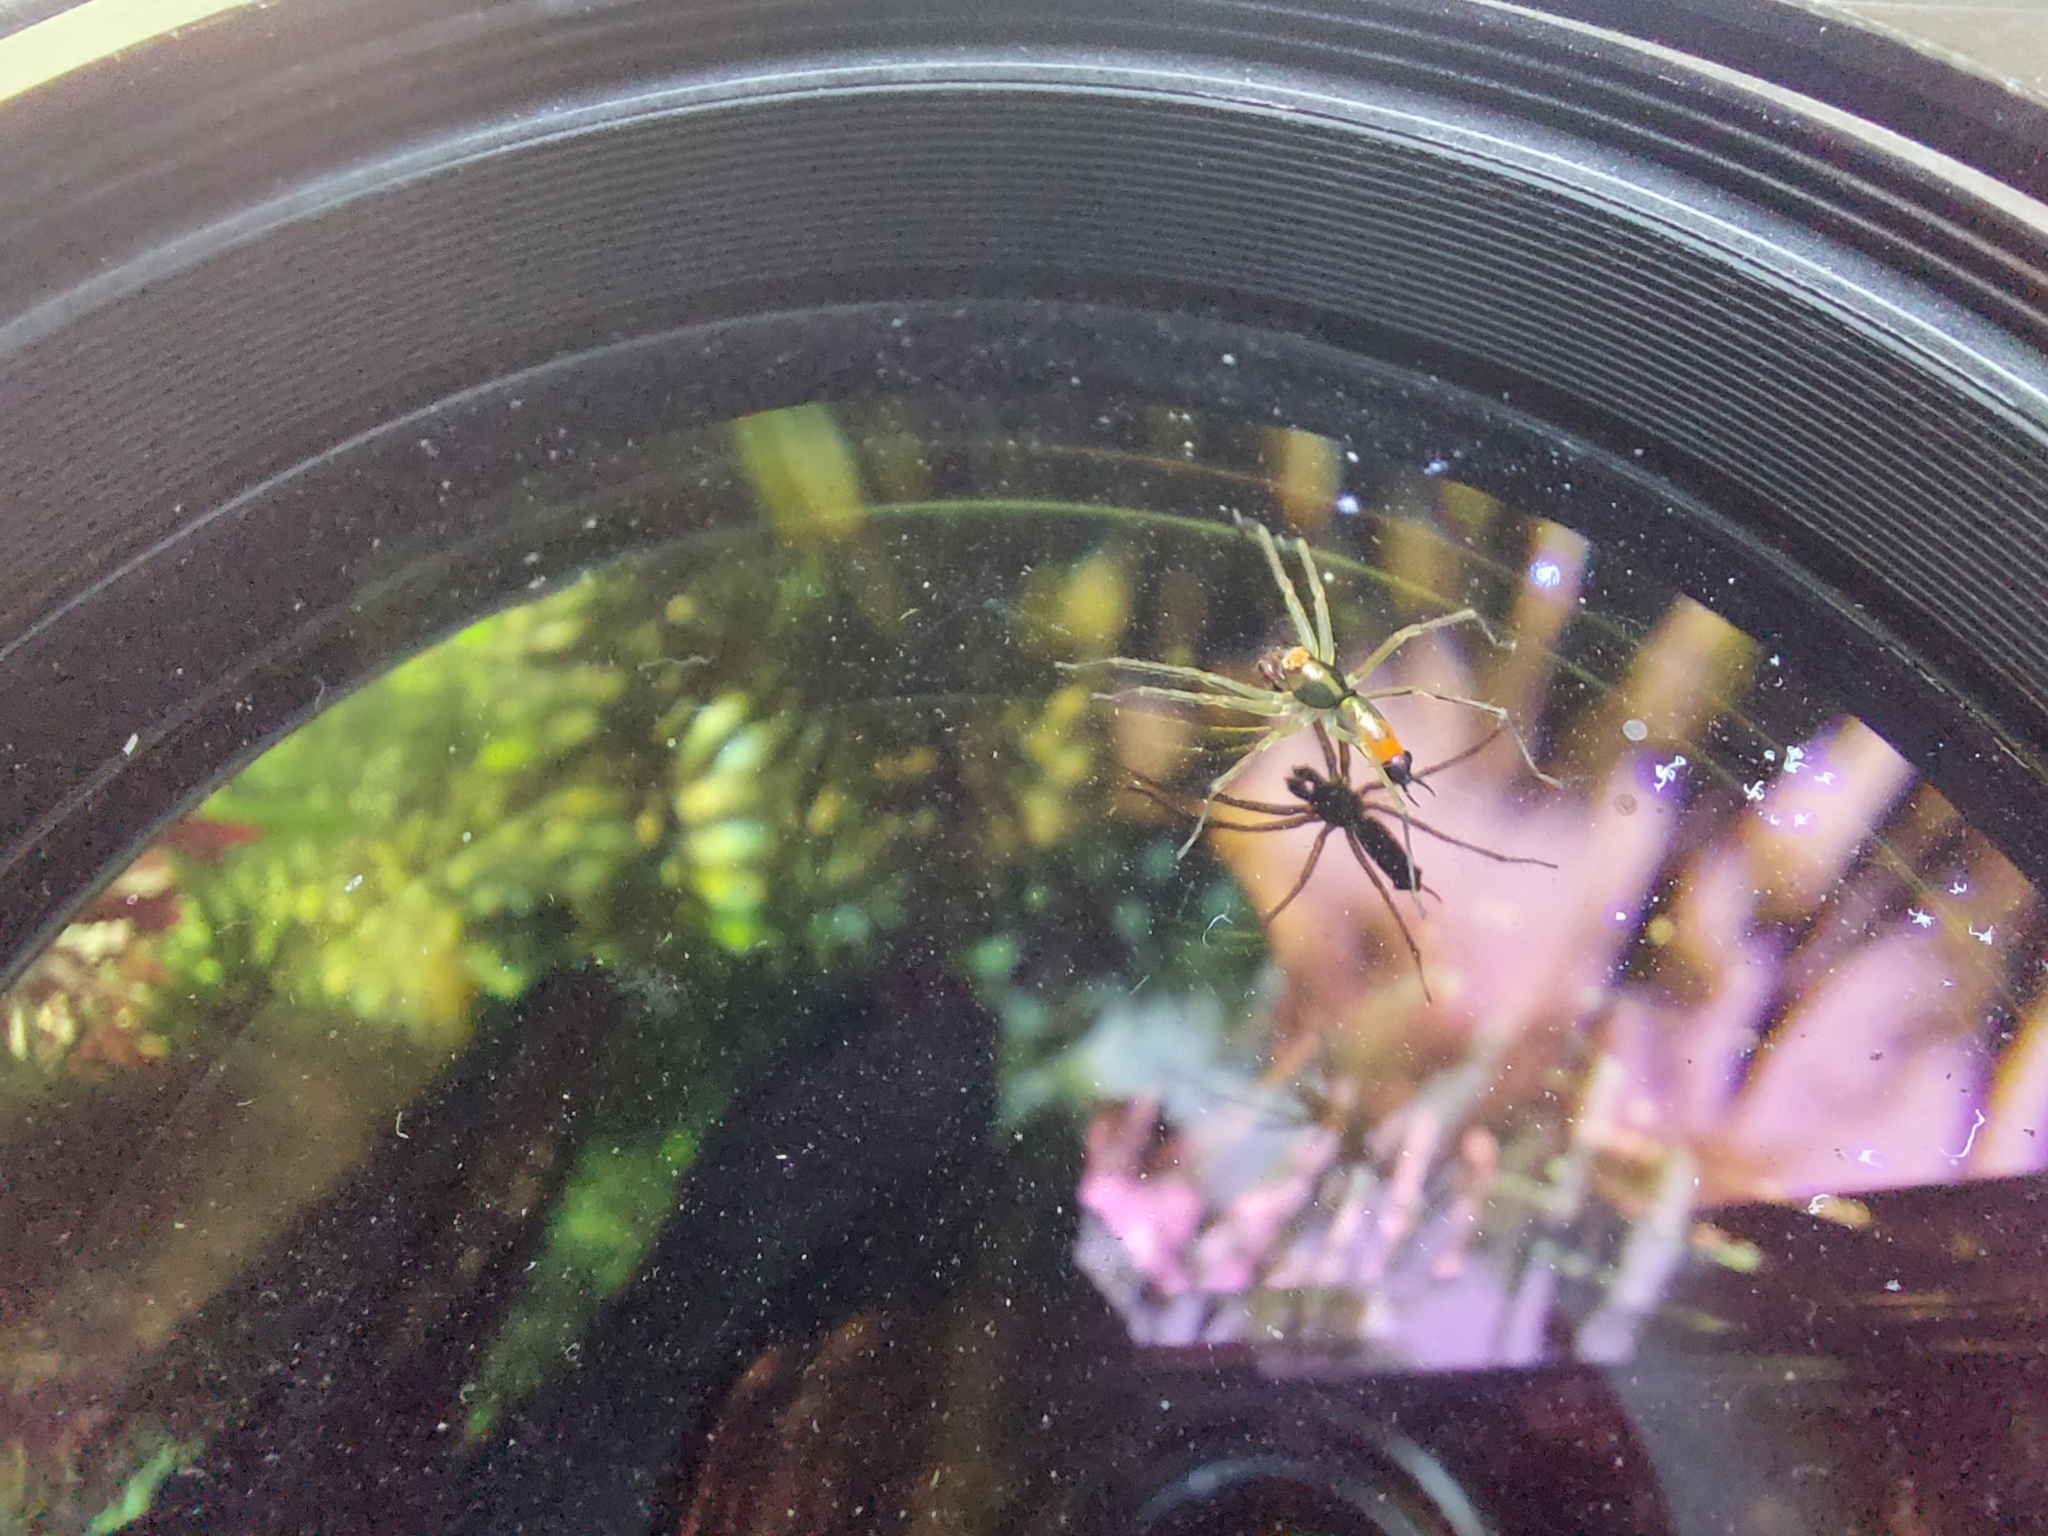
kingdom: Animalia
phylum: Arthropoda
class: Arachnida
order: Araneae
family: Salticidae
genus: Asemonea
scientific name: Asemonea tenuipes
